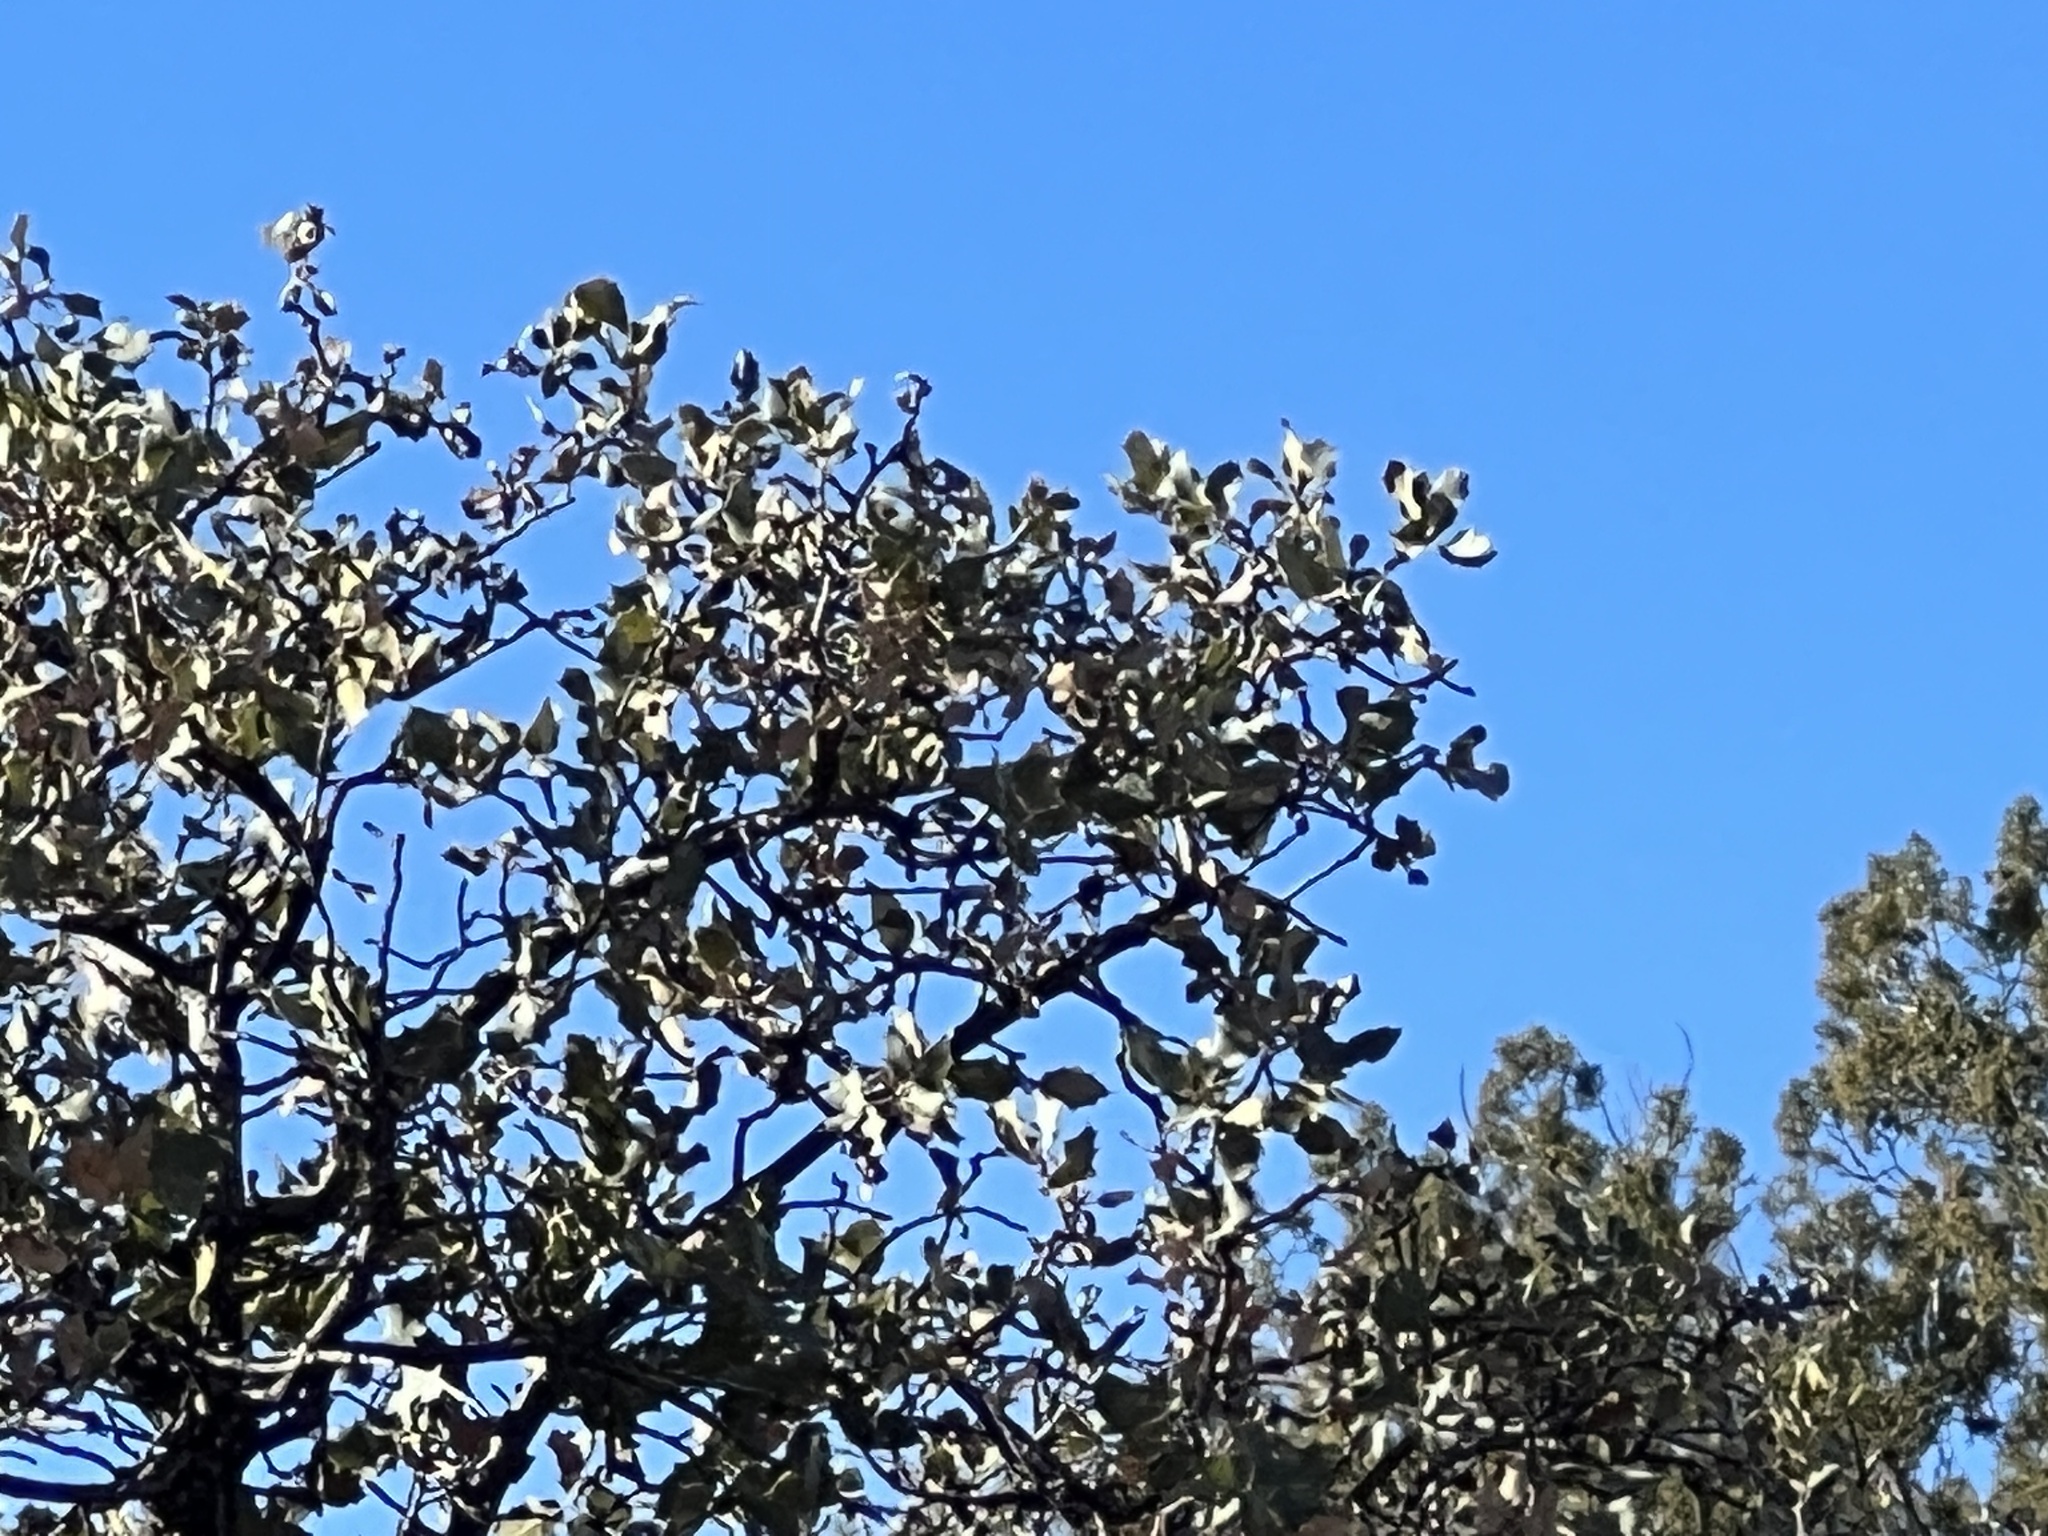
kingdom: Plantae
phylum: Tracheophyta
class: Magnoliopsida
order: Fagales
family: Fagaceae
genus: Quercus
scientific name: Quercus turbinella
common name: Sonoran scrub oak
